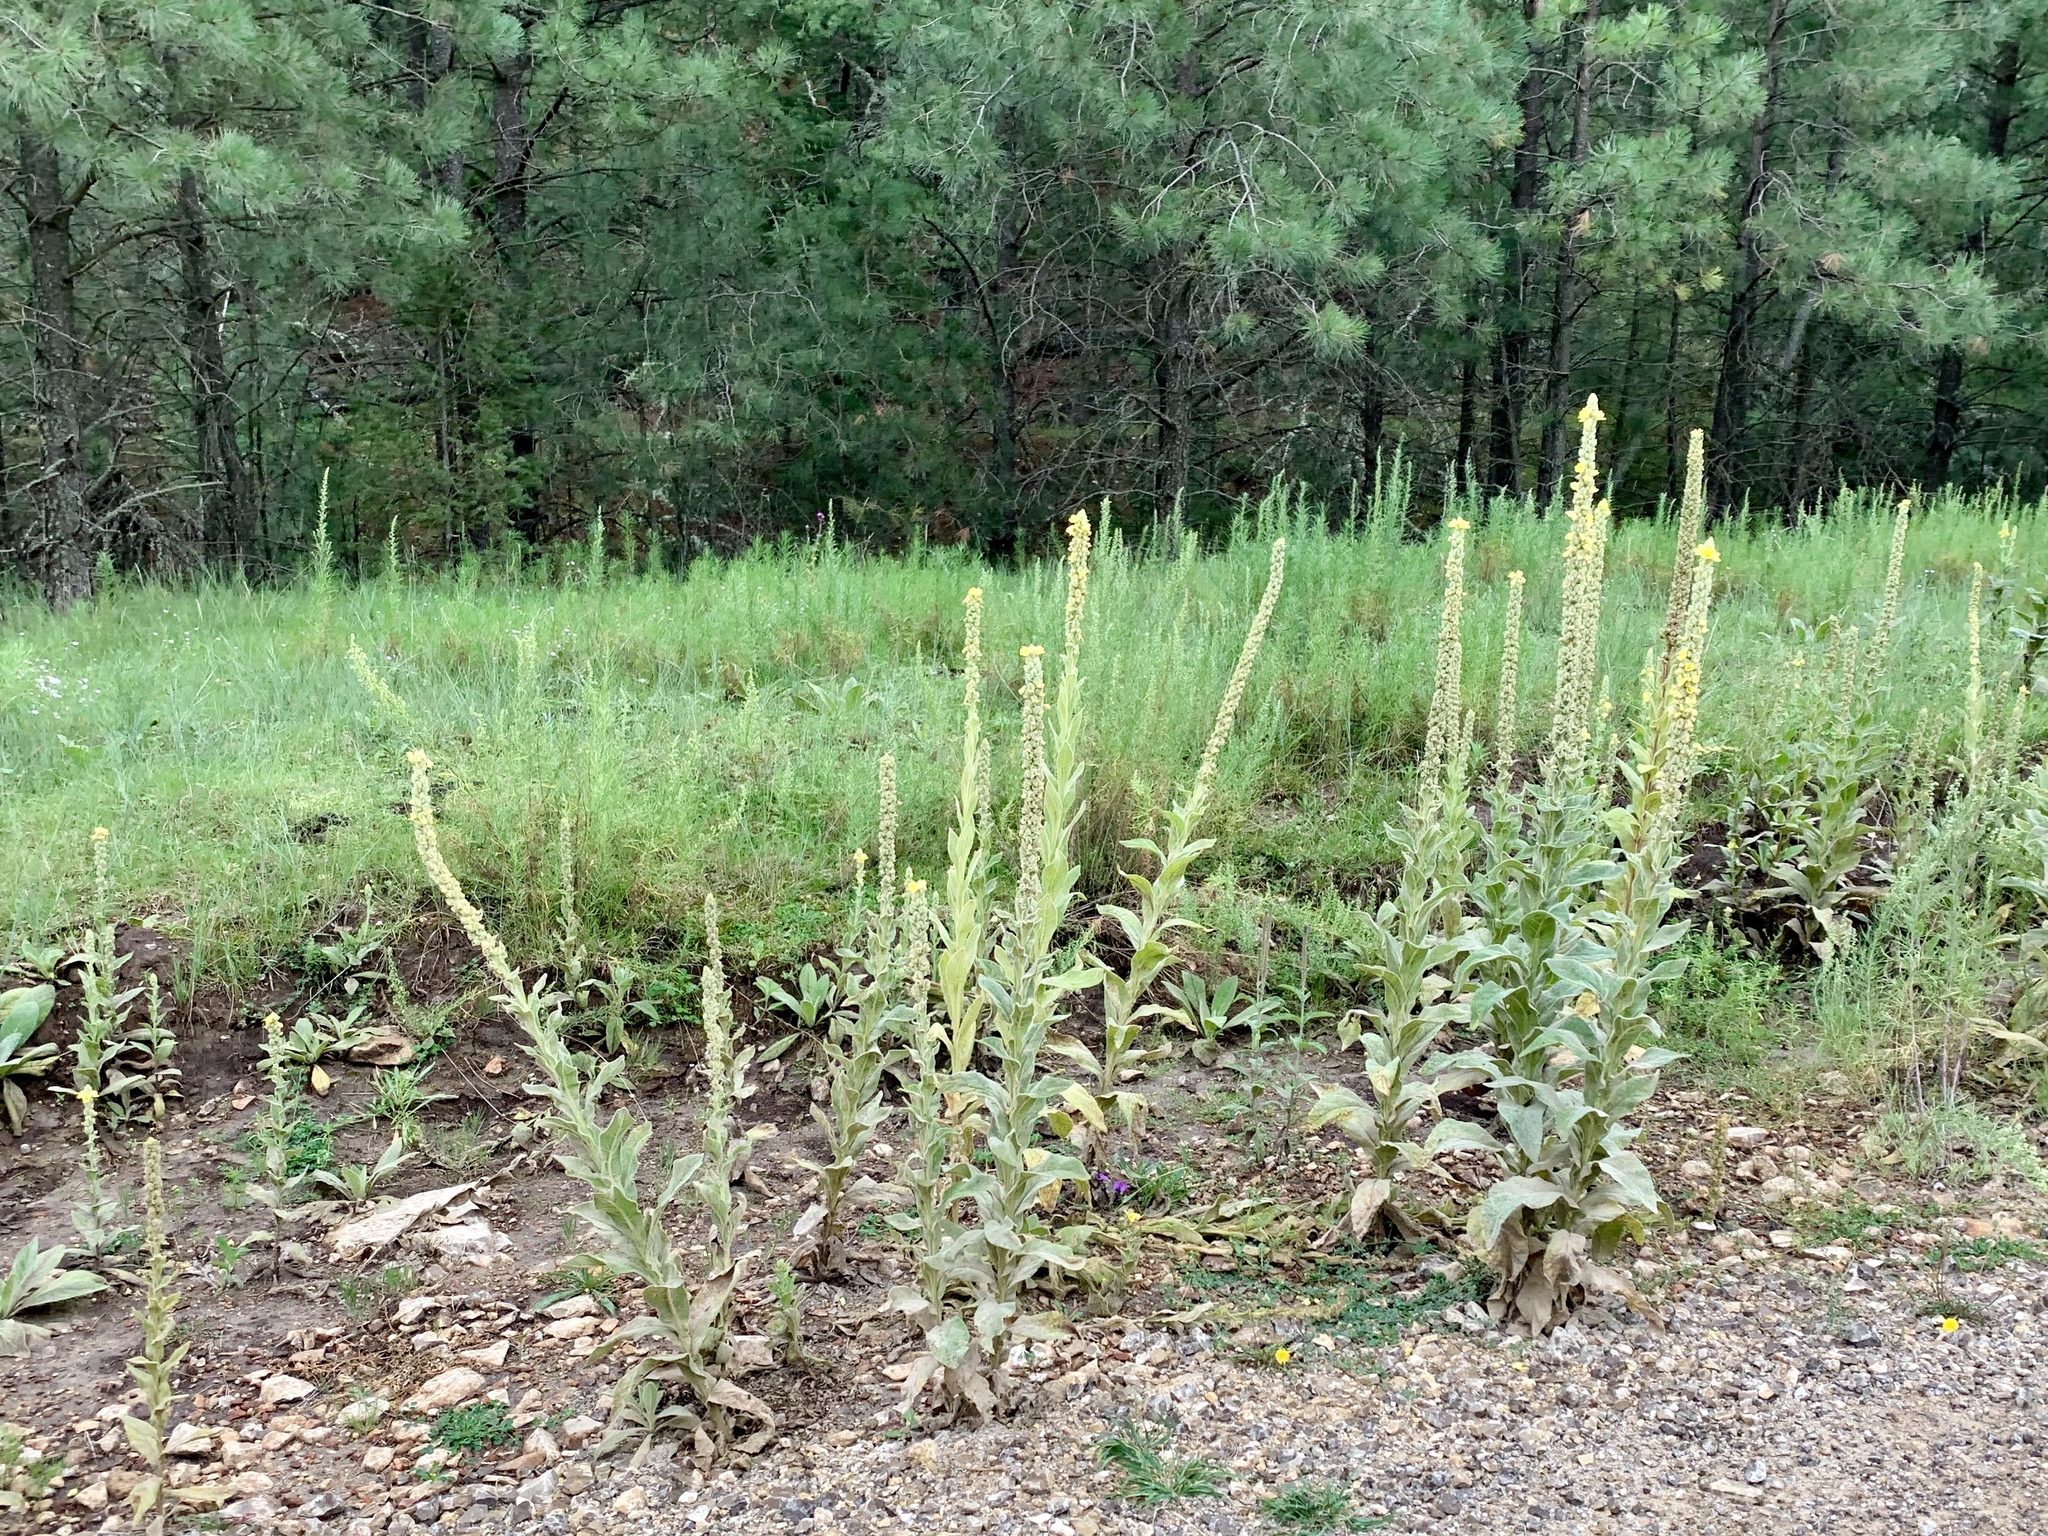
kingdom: Plantae
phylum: Tracheophyta
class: Magnoliopsida
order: Lamiales
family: Scrophulariaceae
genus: Verbascum
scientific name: Verbascum thapsus
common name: Common mullein
